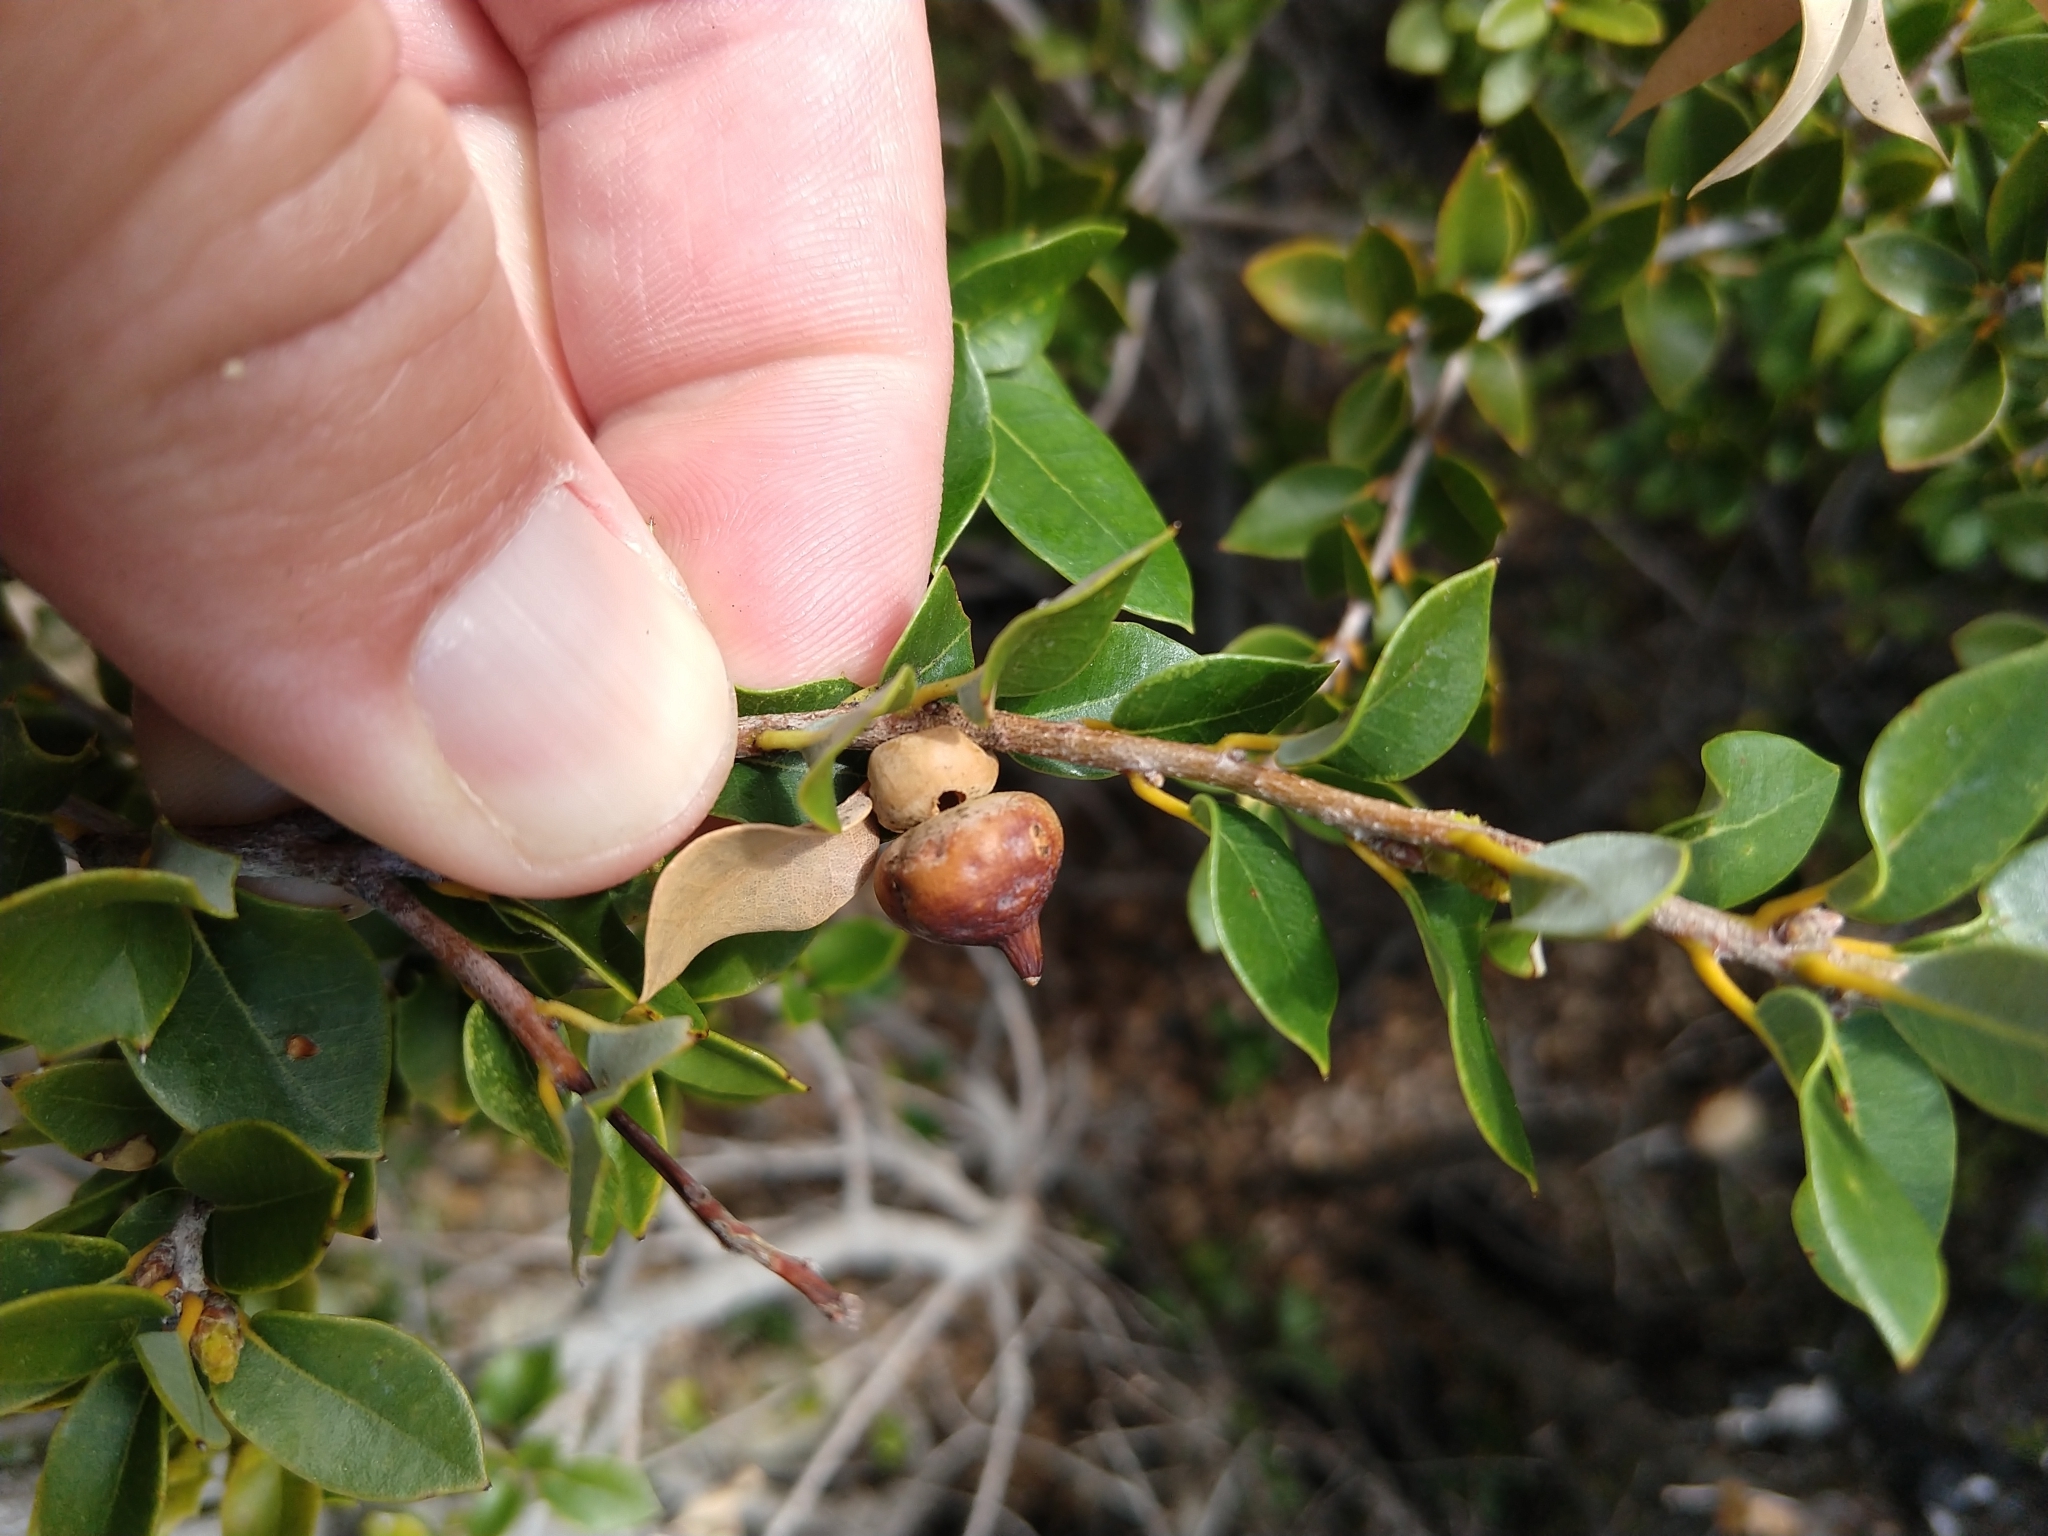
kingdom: Animalia
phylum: Arthropoda
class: Insecta
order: Hymenoptera
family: Cynipidae
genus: Heteroecus
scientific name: Heteroecus
